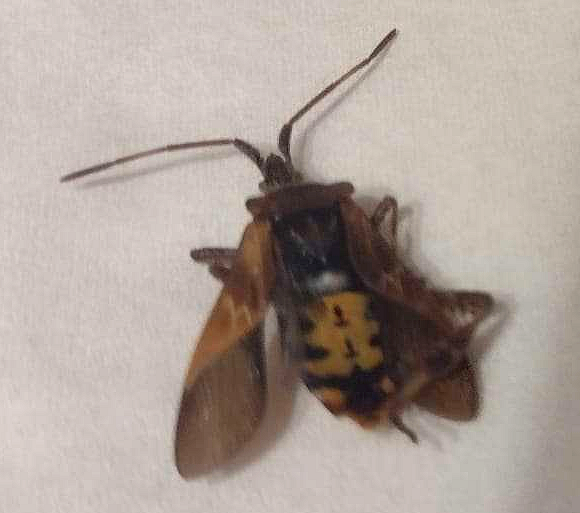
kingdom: Animalia
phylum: Arthropoda
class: Insecta
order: Hemiptera
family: Coreidae
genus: Leptoglossus
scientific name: Leptoglossus occidentalis
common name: Western conifer-seed bug
